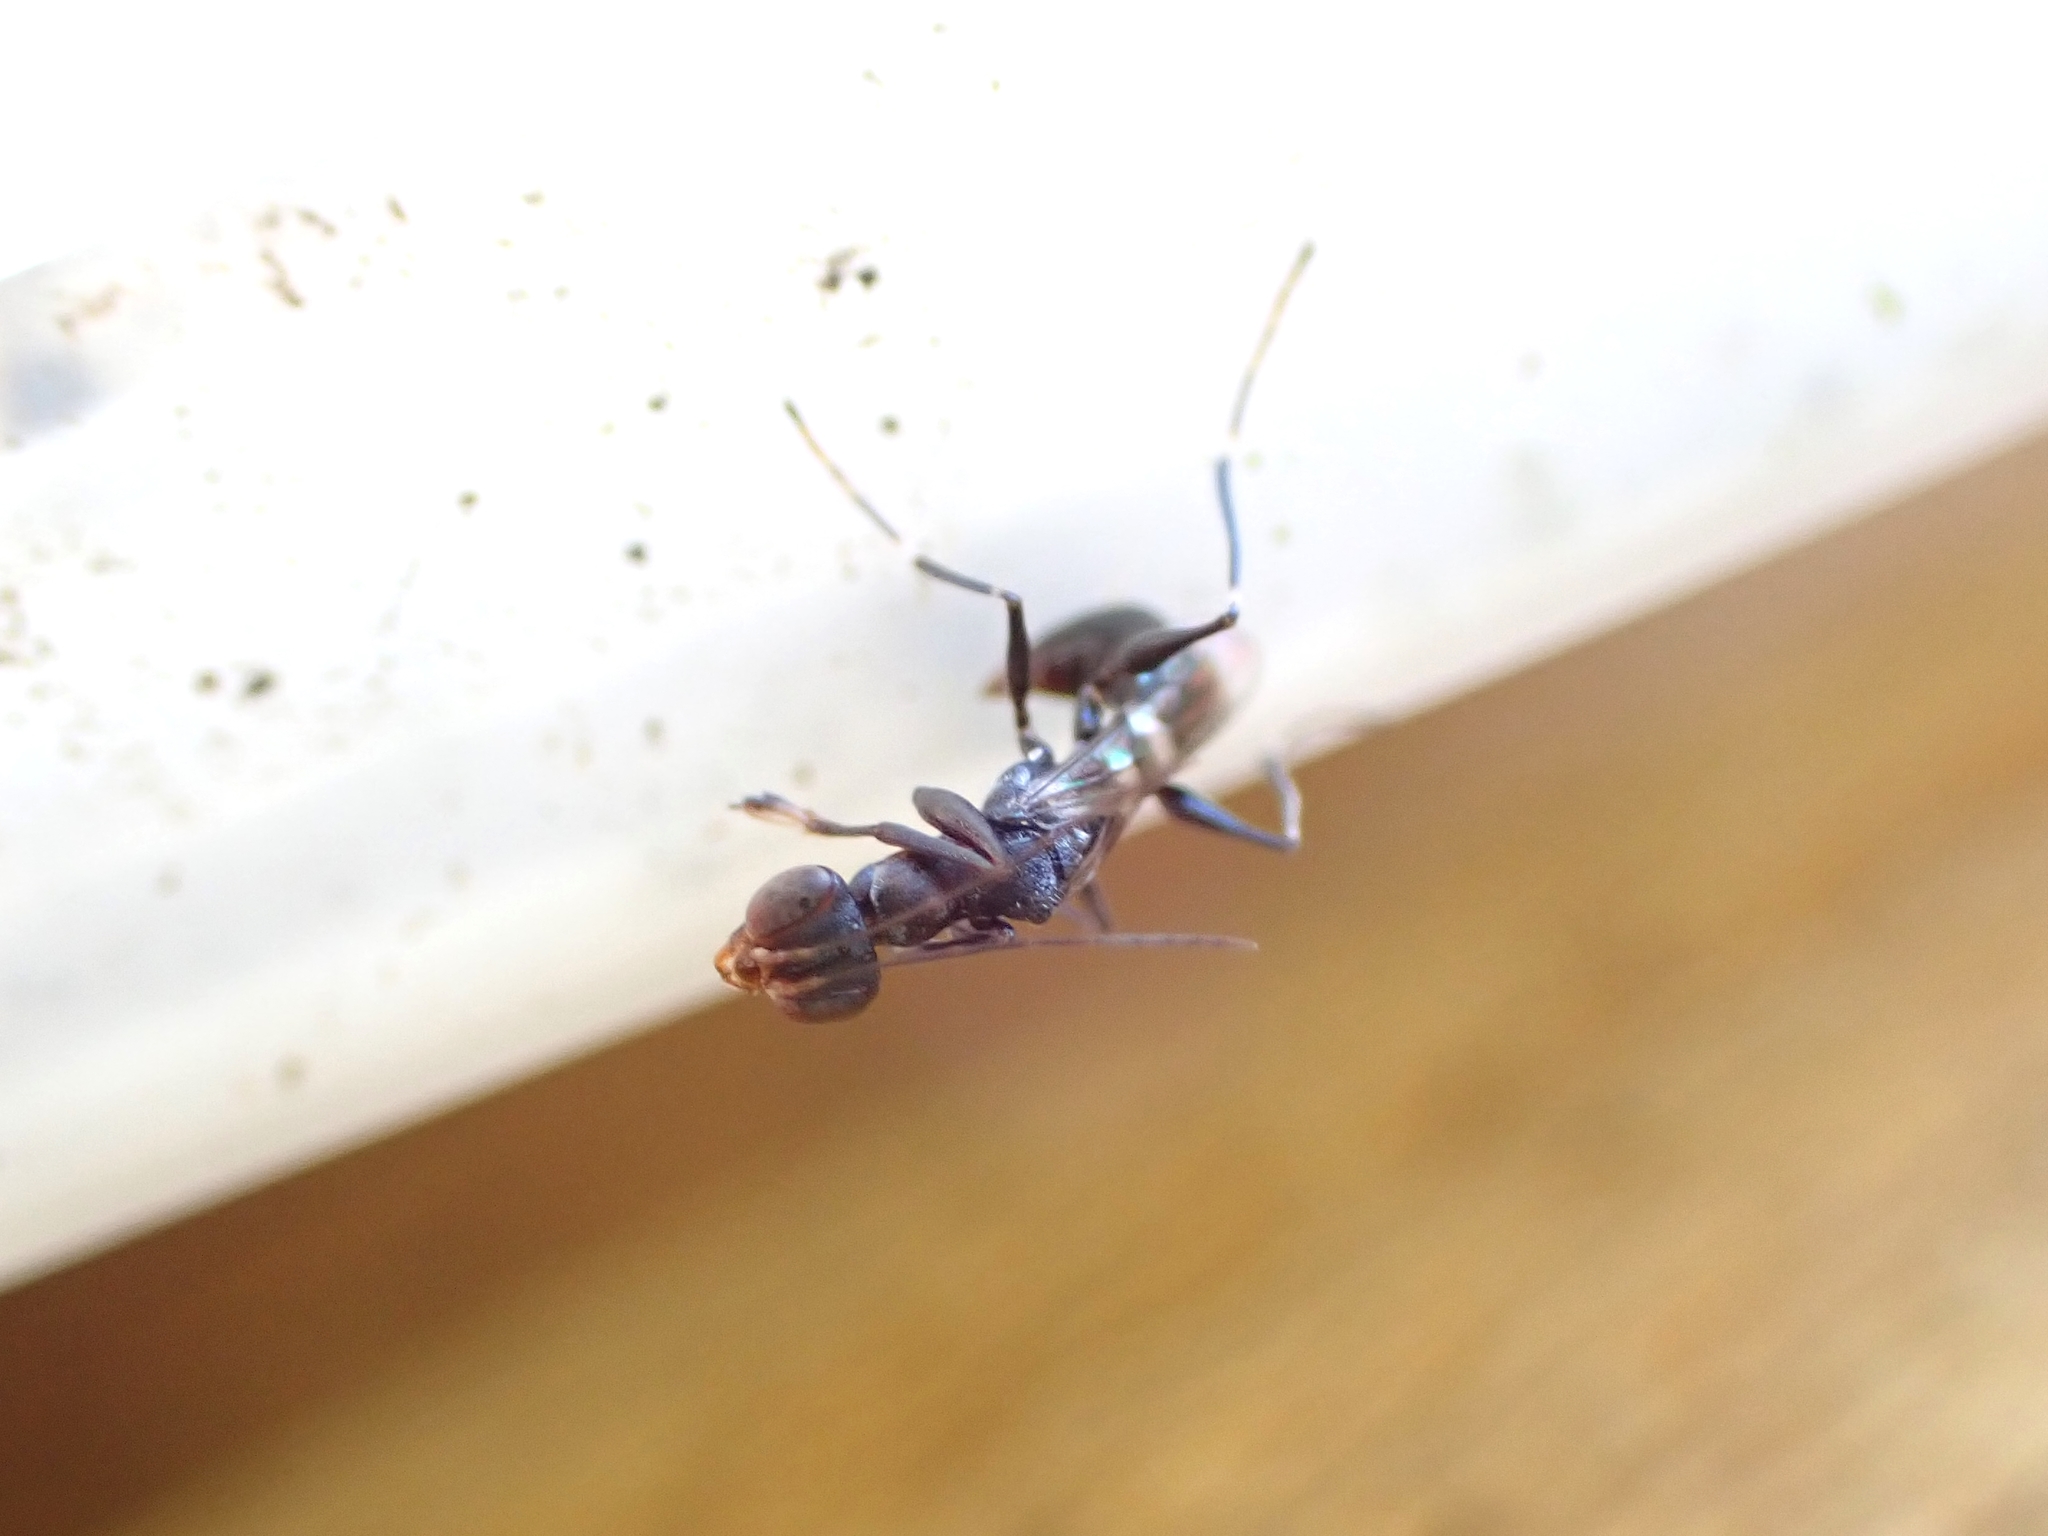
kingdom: Animalia
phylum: Arthropoda
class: Insecta
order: Hymenoptera
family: Dryinidae
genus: Dryinus
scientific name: Dryinus koebelei
